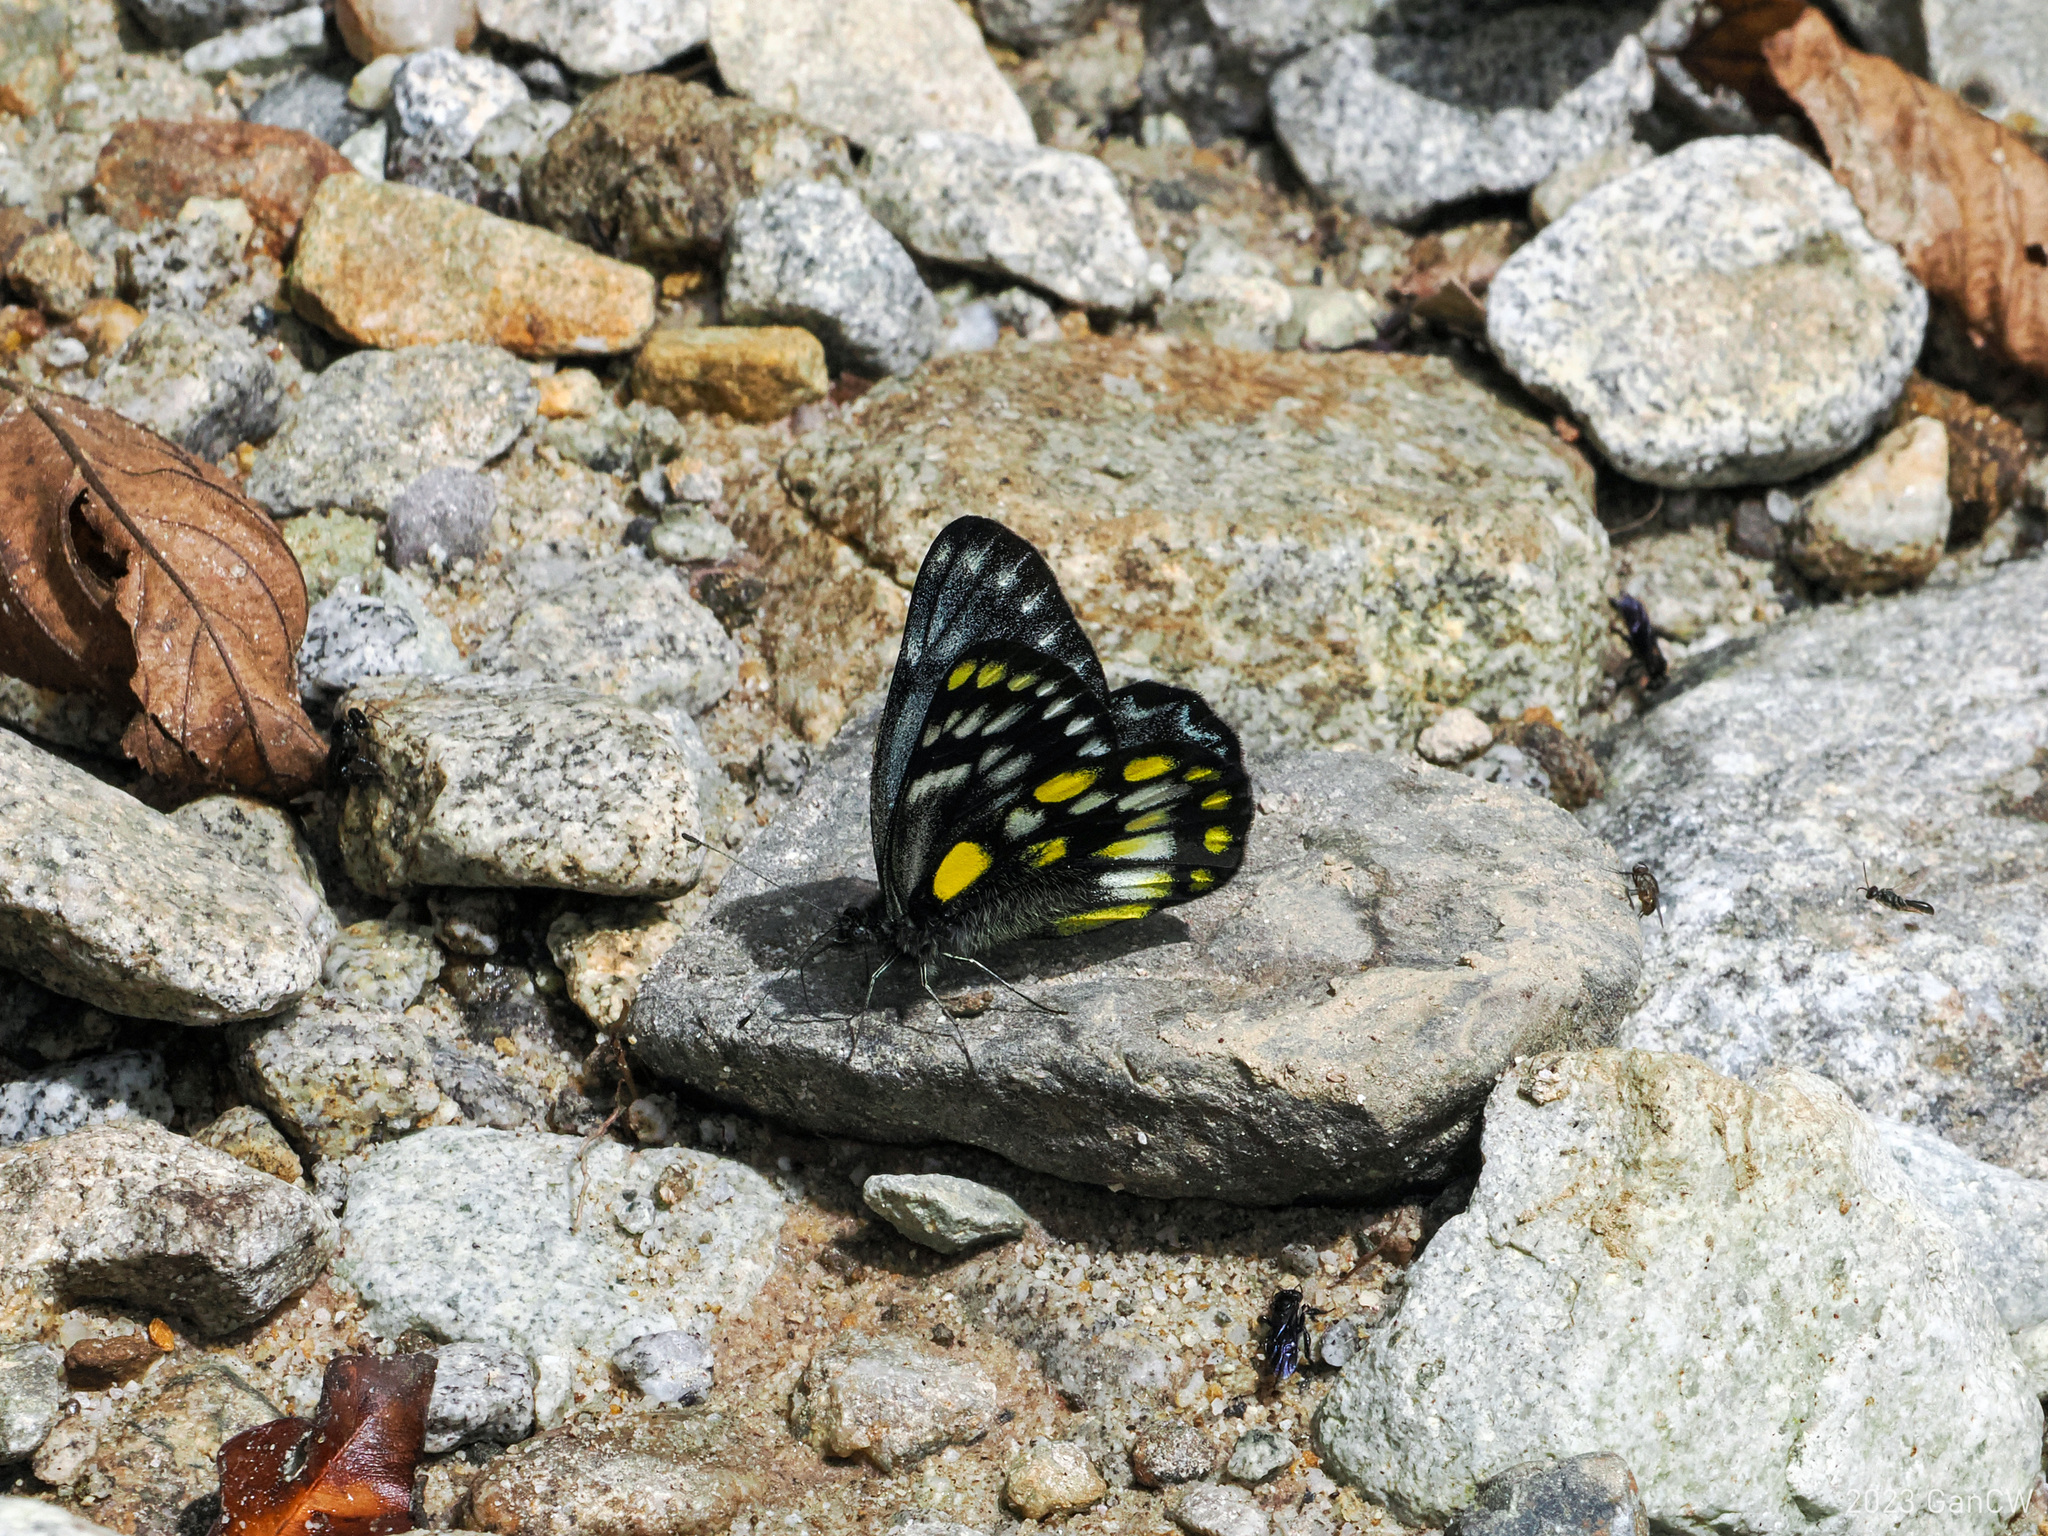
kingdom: Animalia
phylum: Arthropoda
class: Insecta
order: Lepidoptera
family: Pieridae
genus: Delias
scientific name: Delias surprisa
